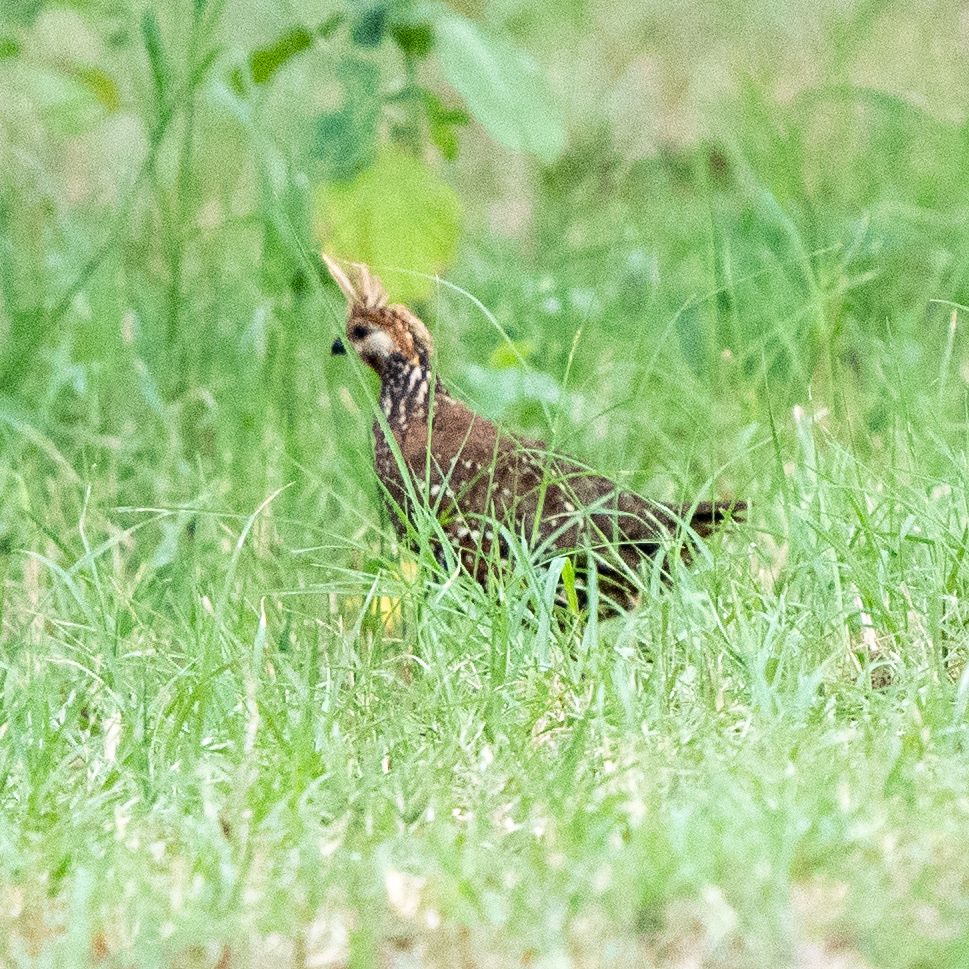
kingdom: Animalia
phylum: Chordata
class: Aves
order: Galliformes
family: Odontophoridae
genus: Colinus
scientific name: Colinus cristatus
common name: Crested bobwhite
